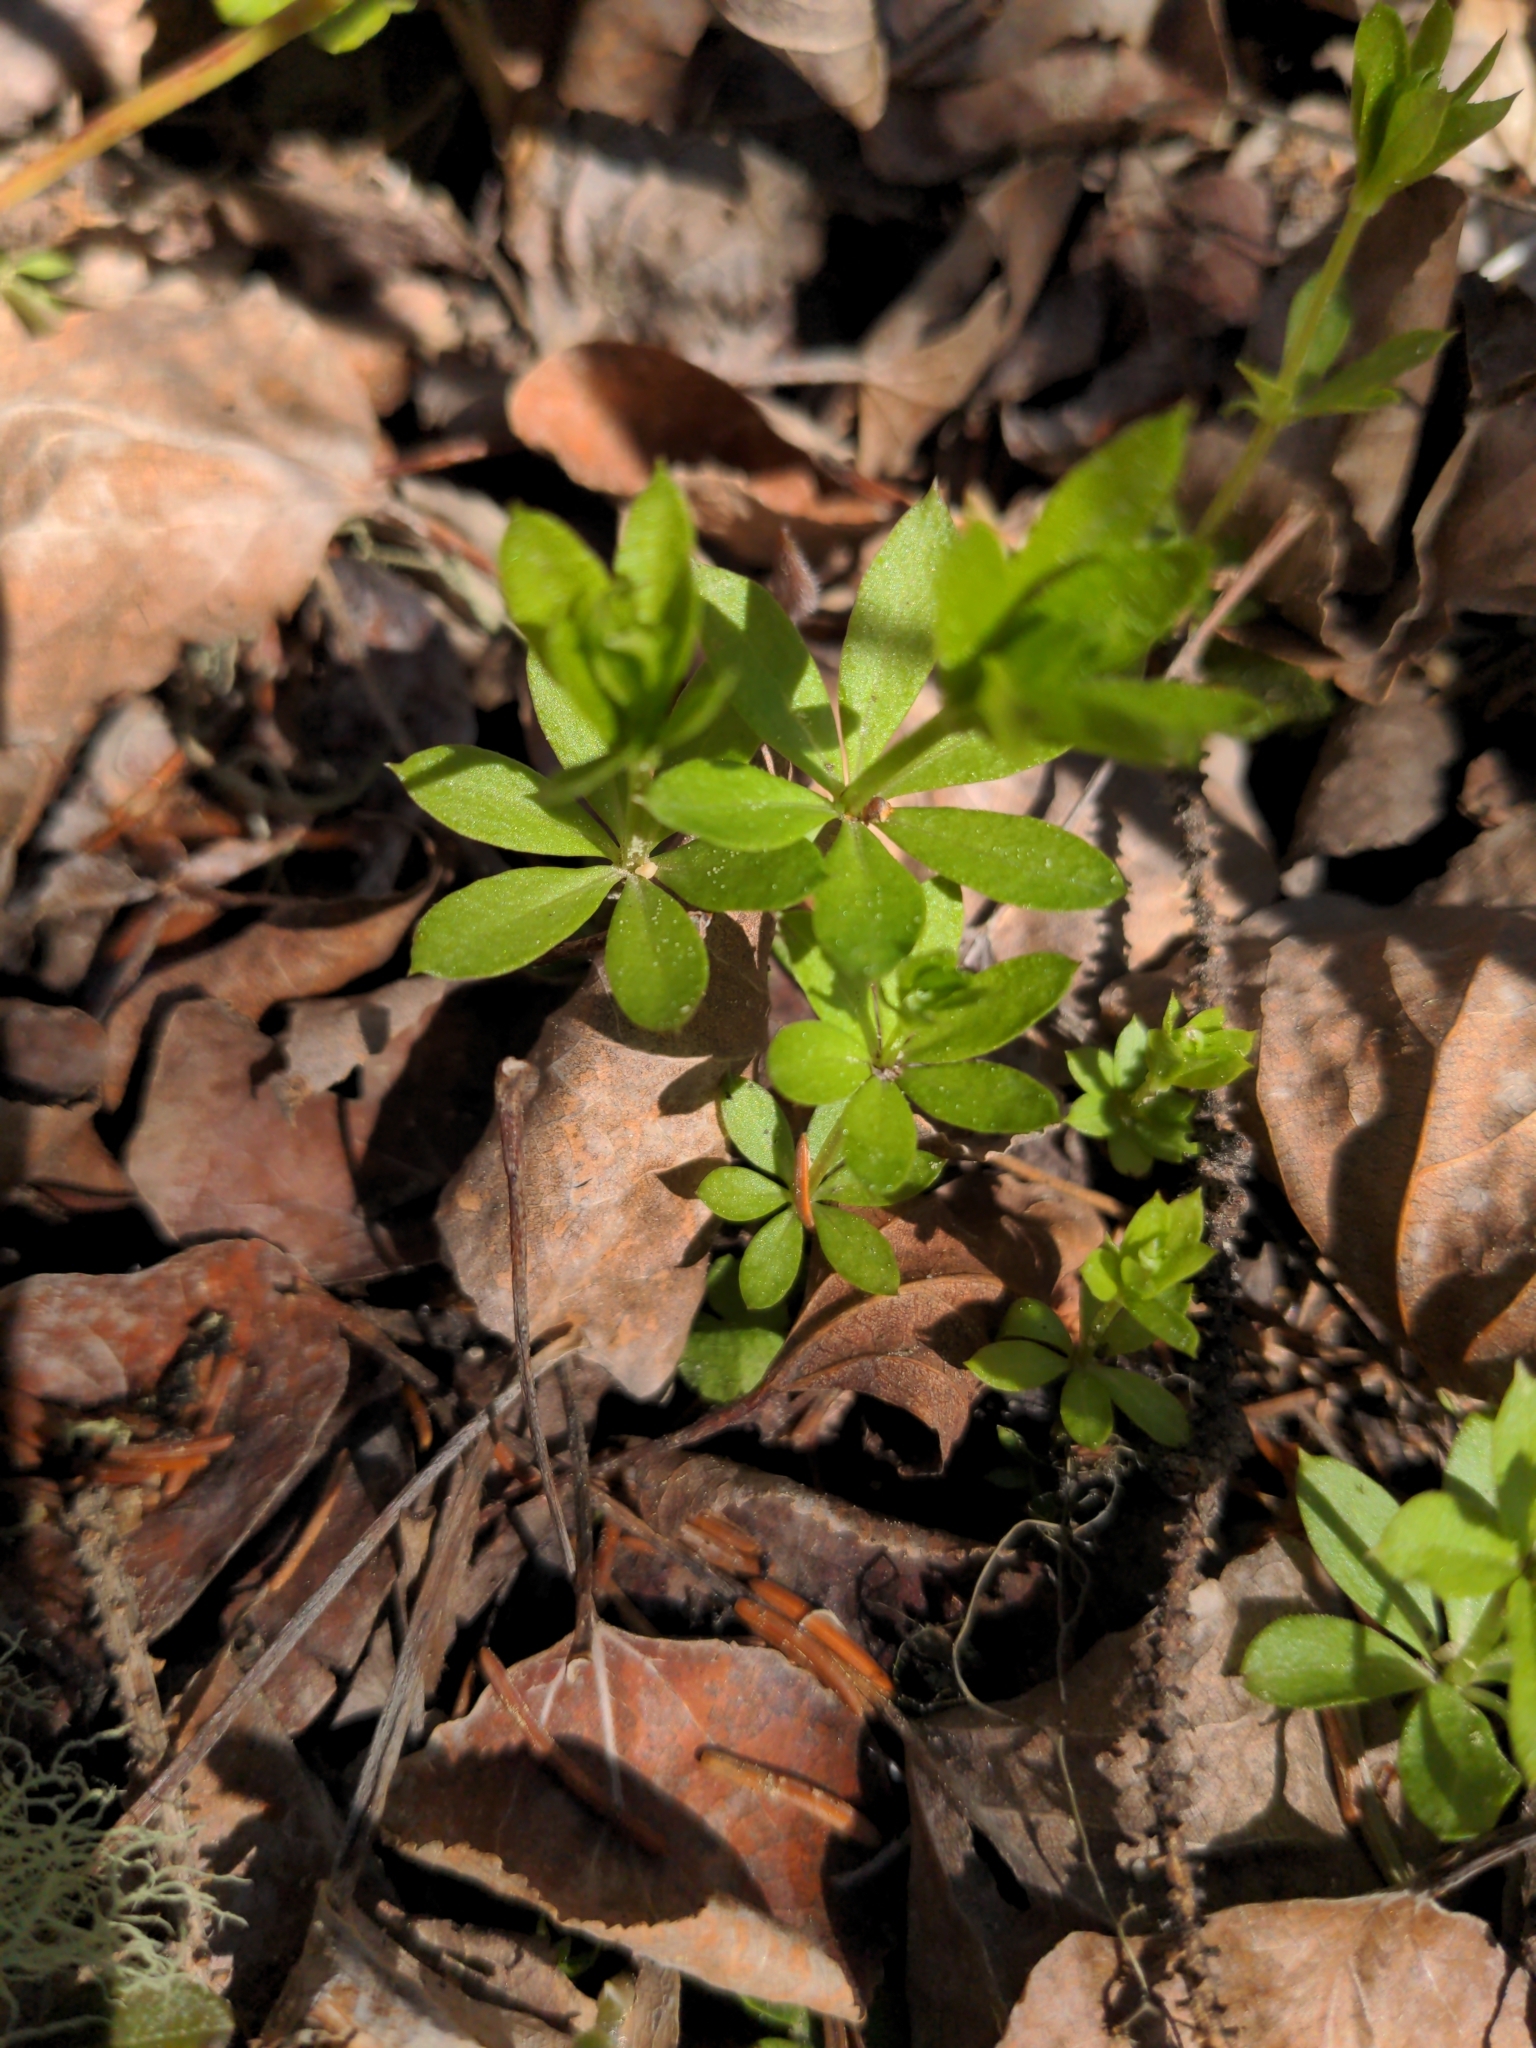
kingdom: Plantae
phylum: Tracheophyta
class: Magnoliopsida
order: Gentianales
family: Rubiaceae
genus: Galium
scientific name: Galium triflorum
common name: Fragrant bedstraw
